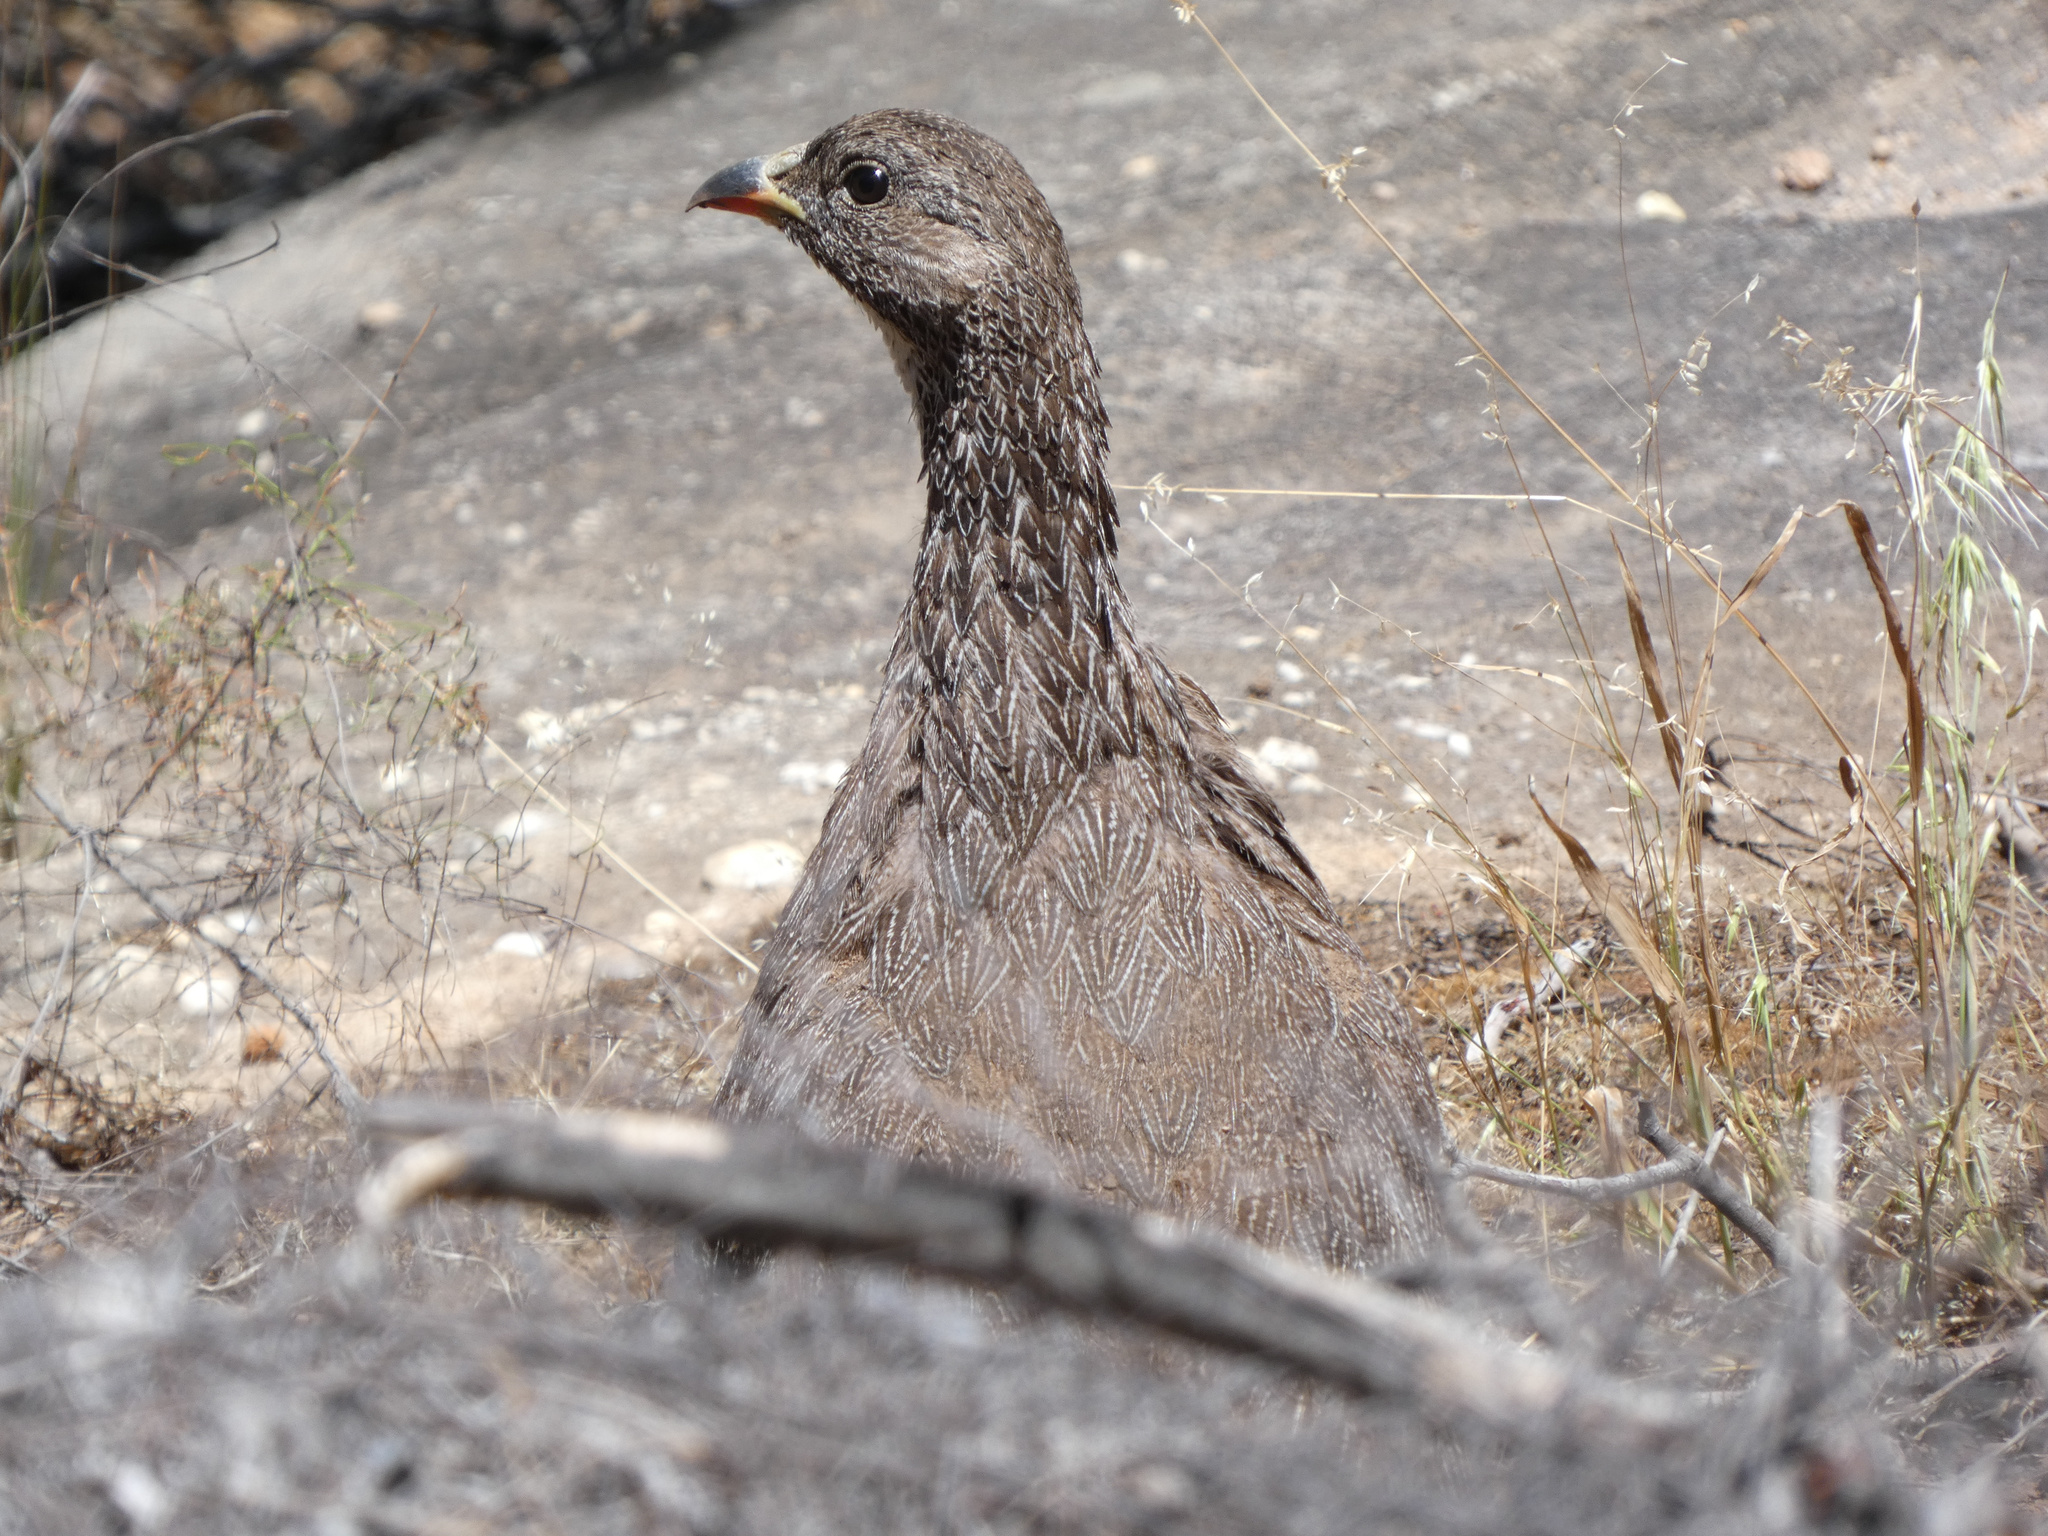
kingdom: Animalia
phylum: Chordata
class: Aves
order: Galliformes
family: Phasianidae
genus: Pternistis
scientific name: Pternistis capensis
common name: Cape spurfowl
